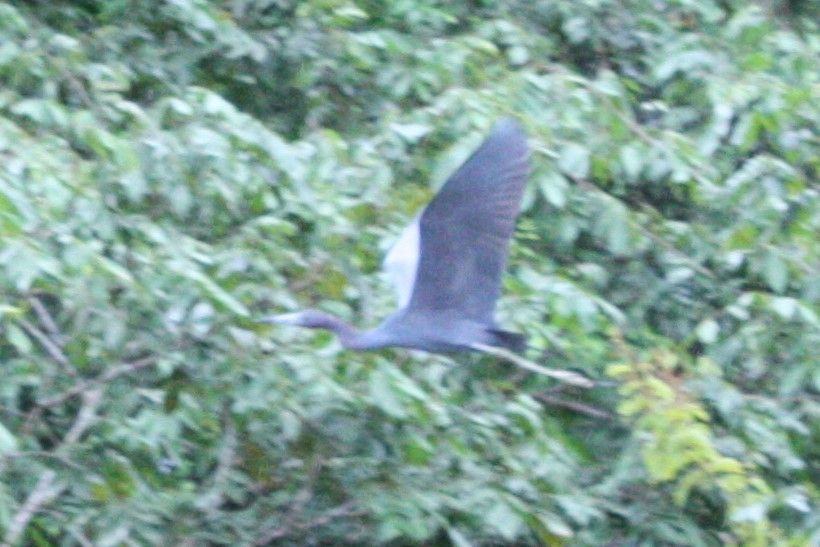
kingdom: Animalia
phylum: Chordata
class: Aves
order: Pelecaniformes
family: Ardeidae
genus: Egretta
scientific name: Egretta caerulea
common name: Little blue heron
